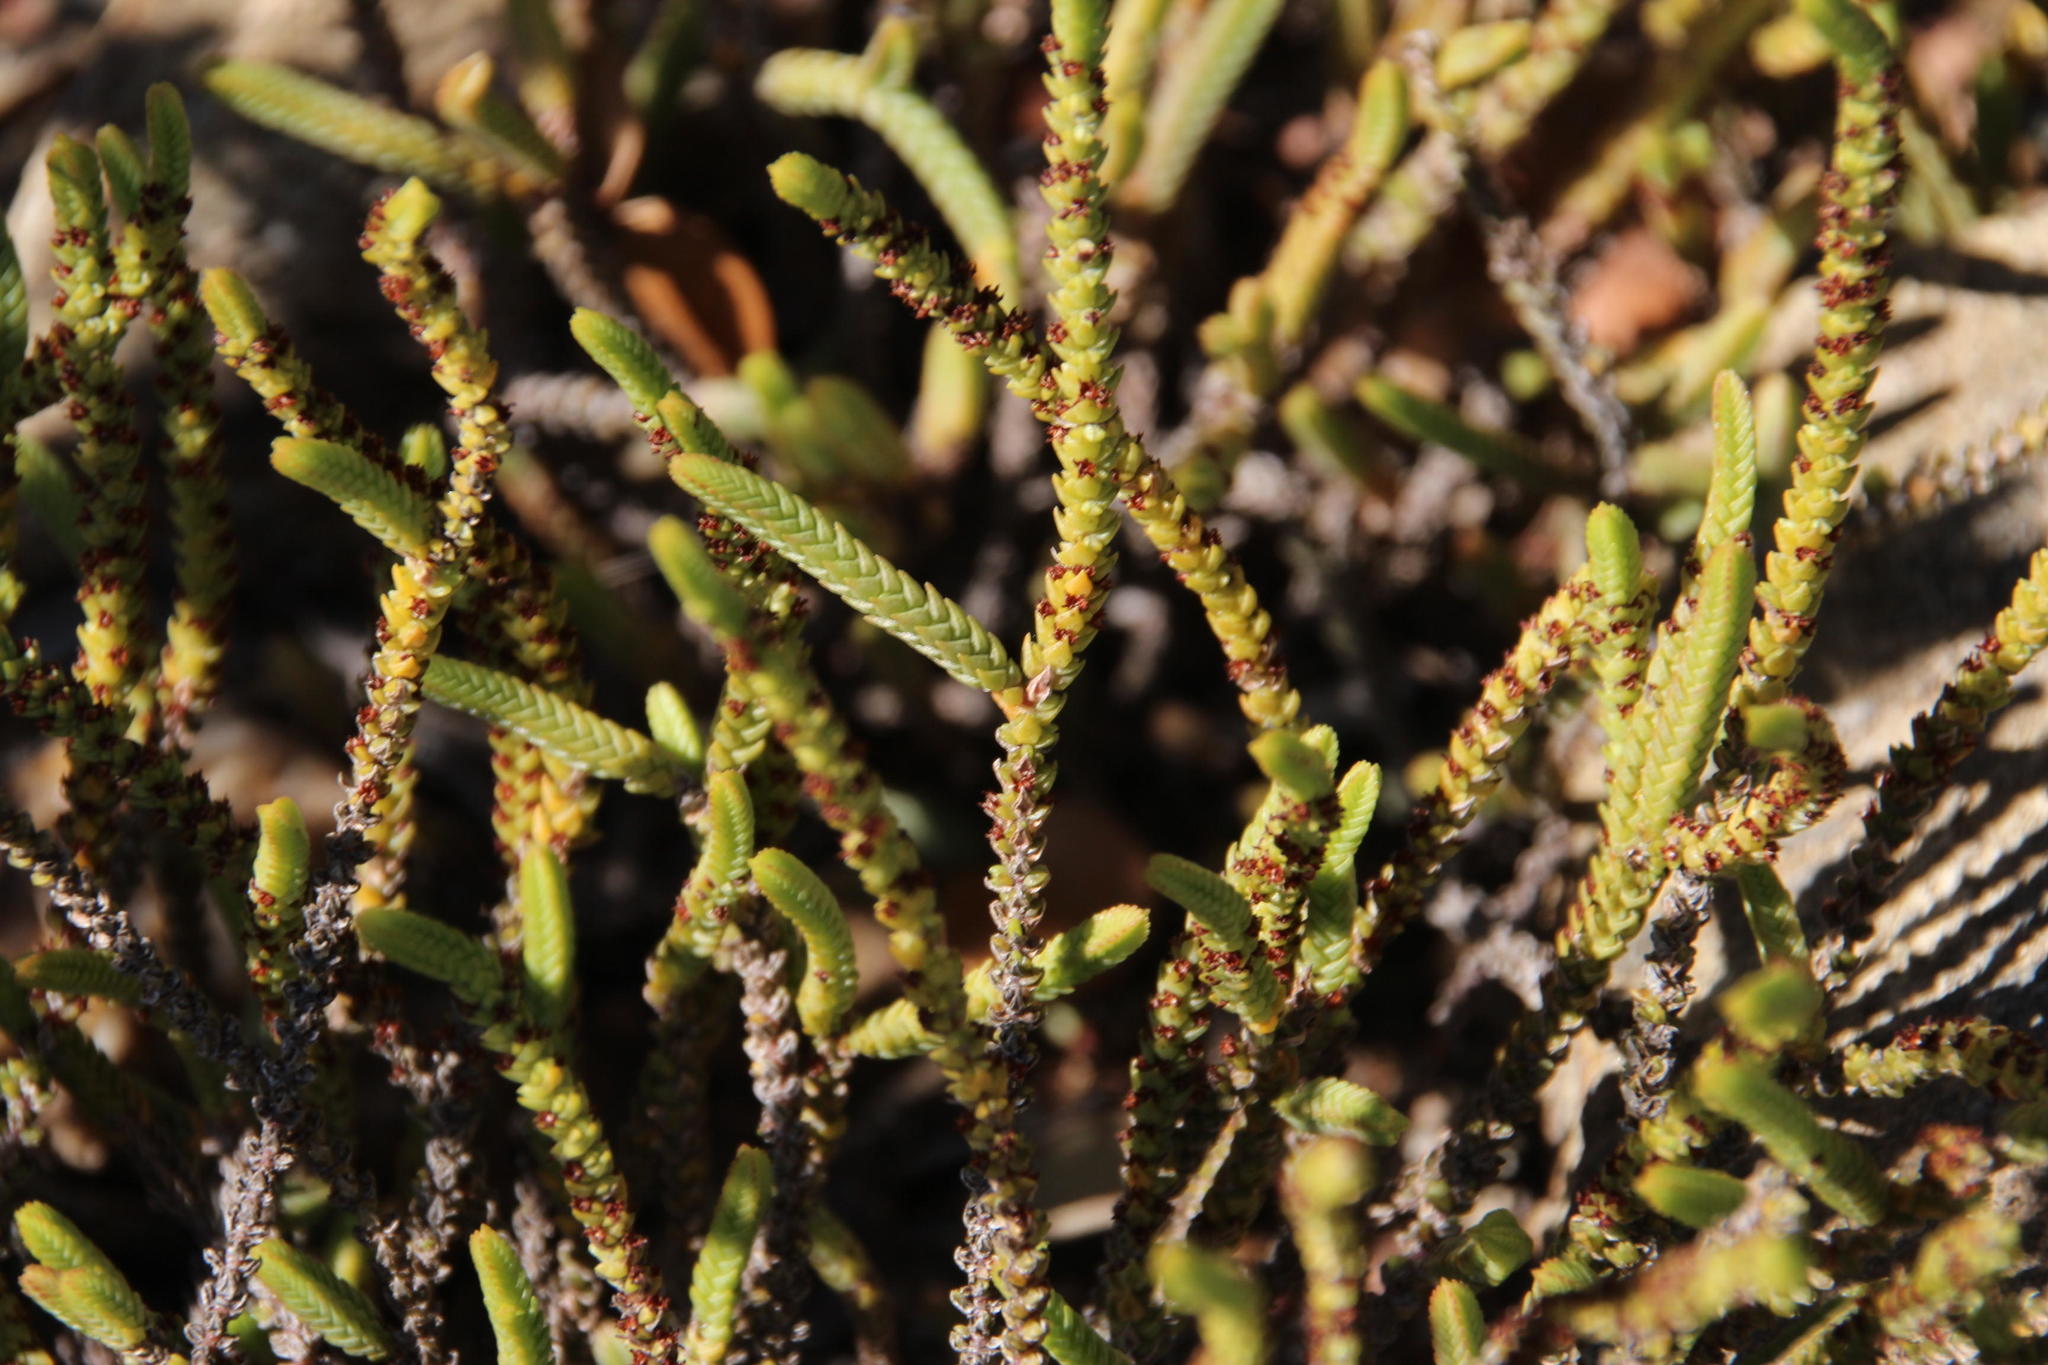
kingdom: Plantae
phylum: Tracheophyta
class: Magnoliopsida
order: Saxifragales
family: Crassulaceae
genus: Crassula
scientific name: Crassula muscosa
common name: Toy-cypress
